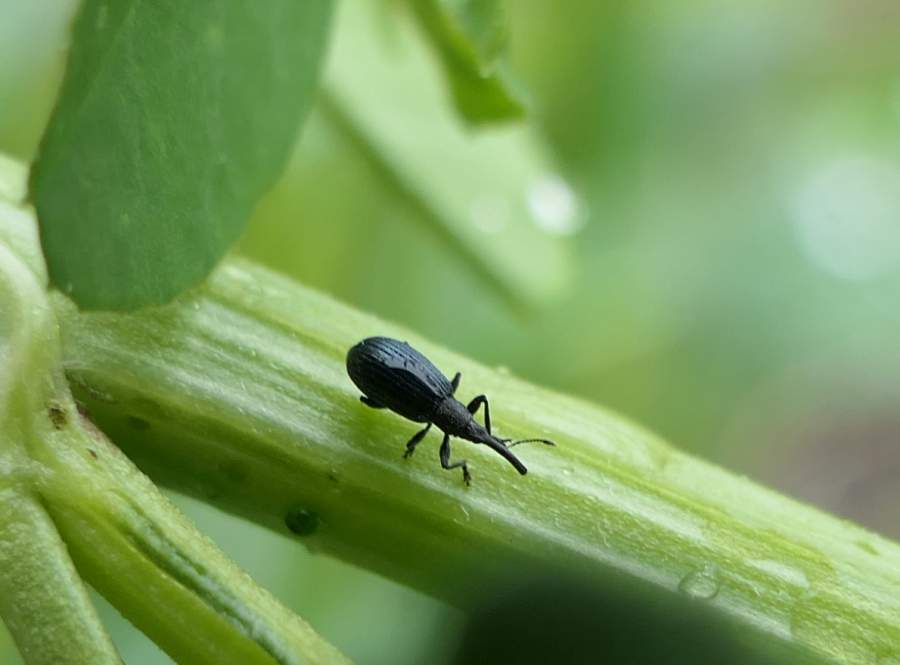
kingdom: Animalia
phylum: Arthropoda
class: Insecta
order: Coleoptera
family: Brentidae
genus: Stenopterapion
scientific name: Stenopterapion meliloti
